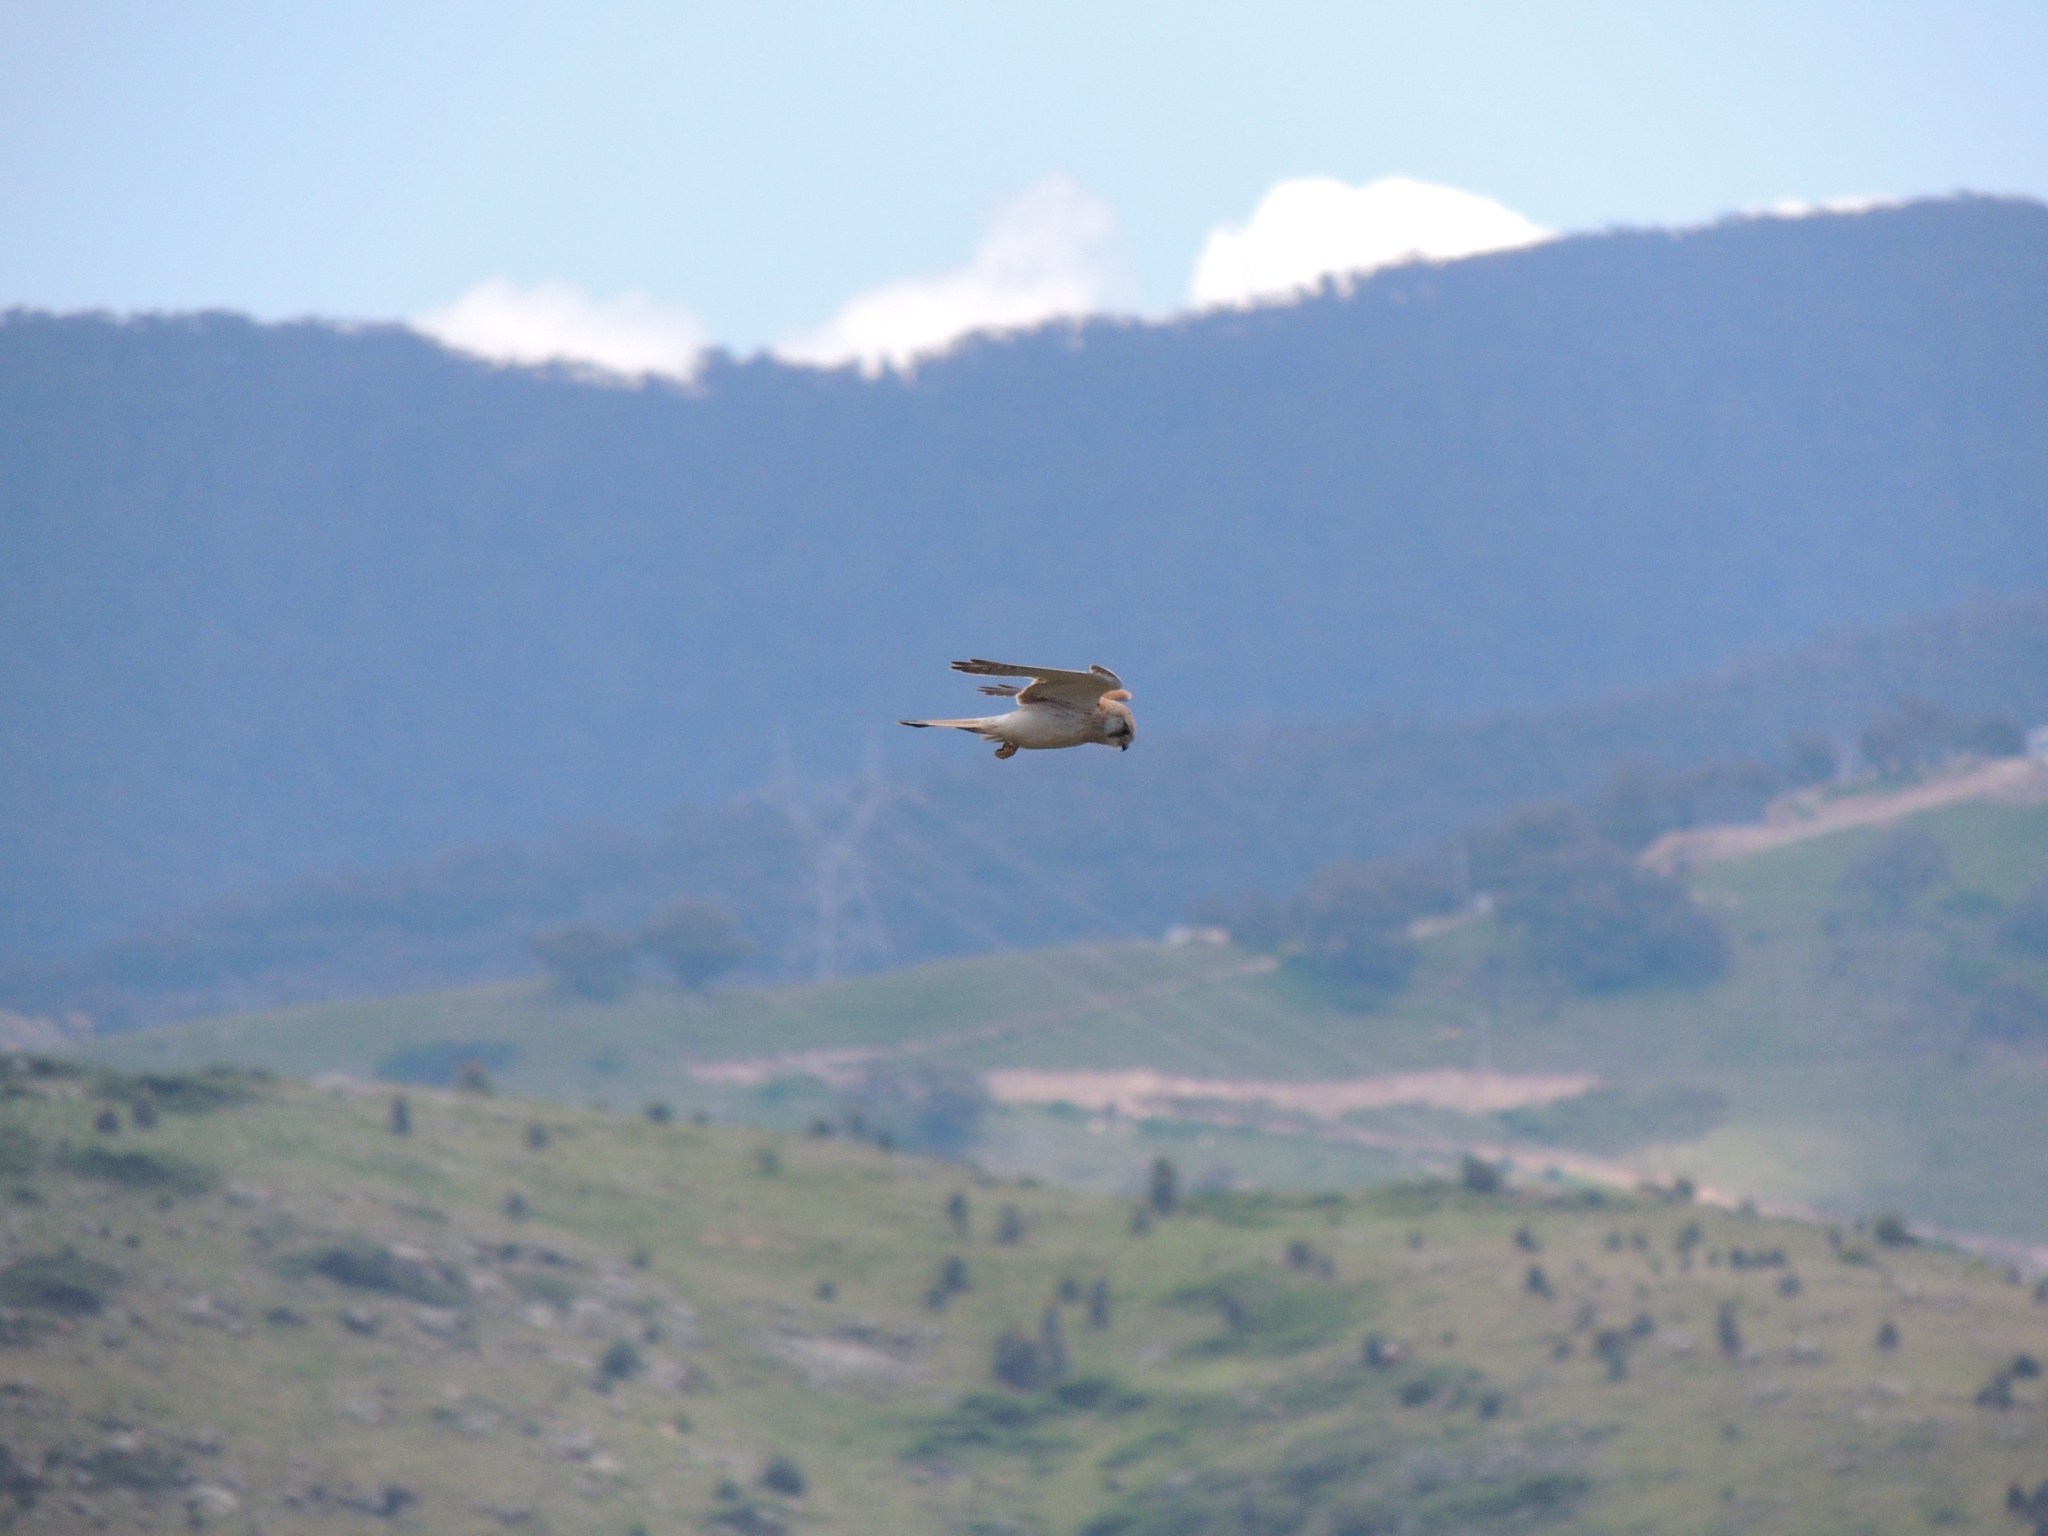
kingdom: Animalia
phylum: Chordata
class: Aves
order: Falconiformes
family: Falconidae
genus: Falco
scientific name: Falco cenchroides
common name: Nankeen kestrel
